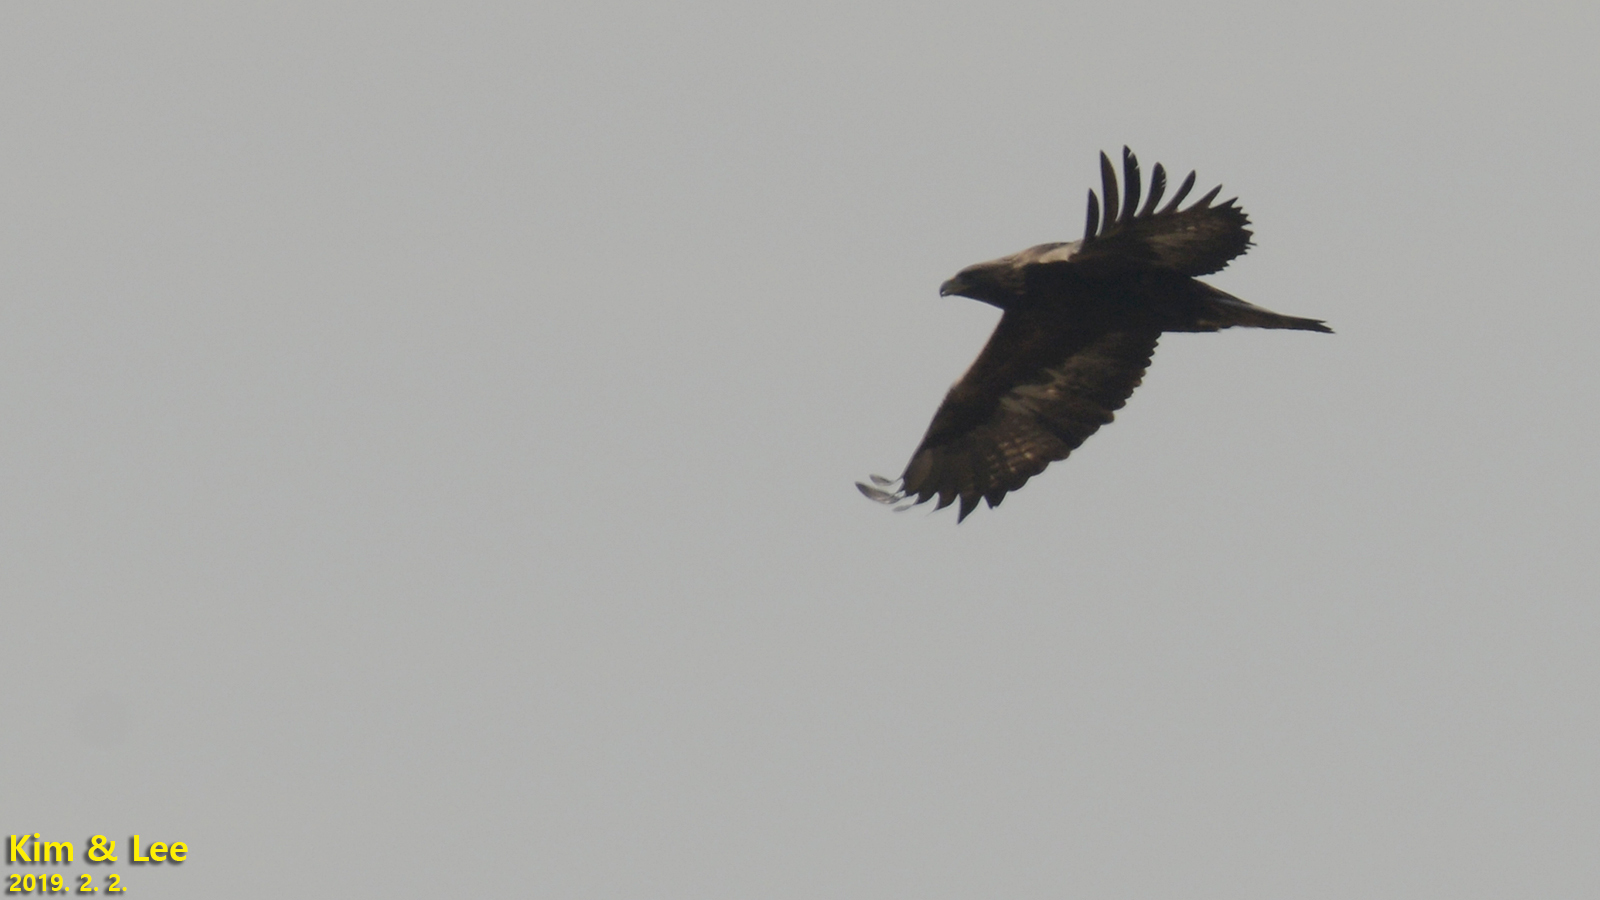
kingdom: Animalia
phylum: Chordata
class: Aves
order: Accipitriformes
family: Accipitridae
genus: Aquila
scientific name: Aquila chrysaetos
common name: Golden eagle
